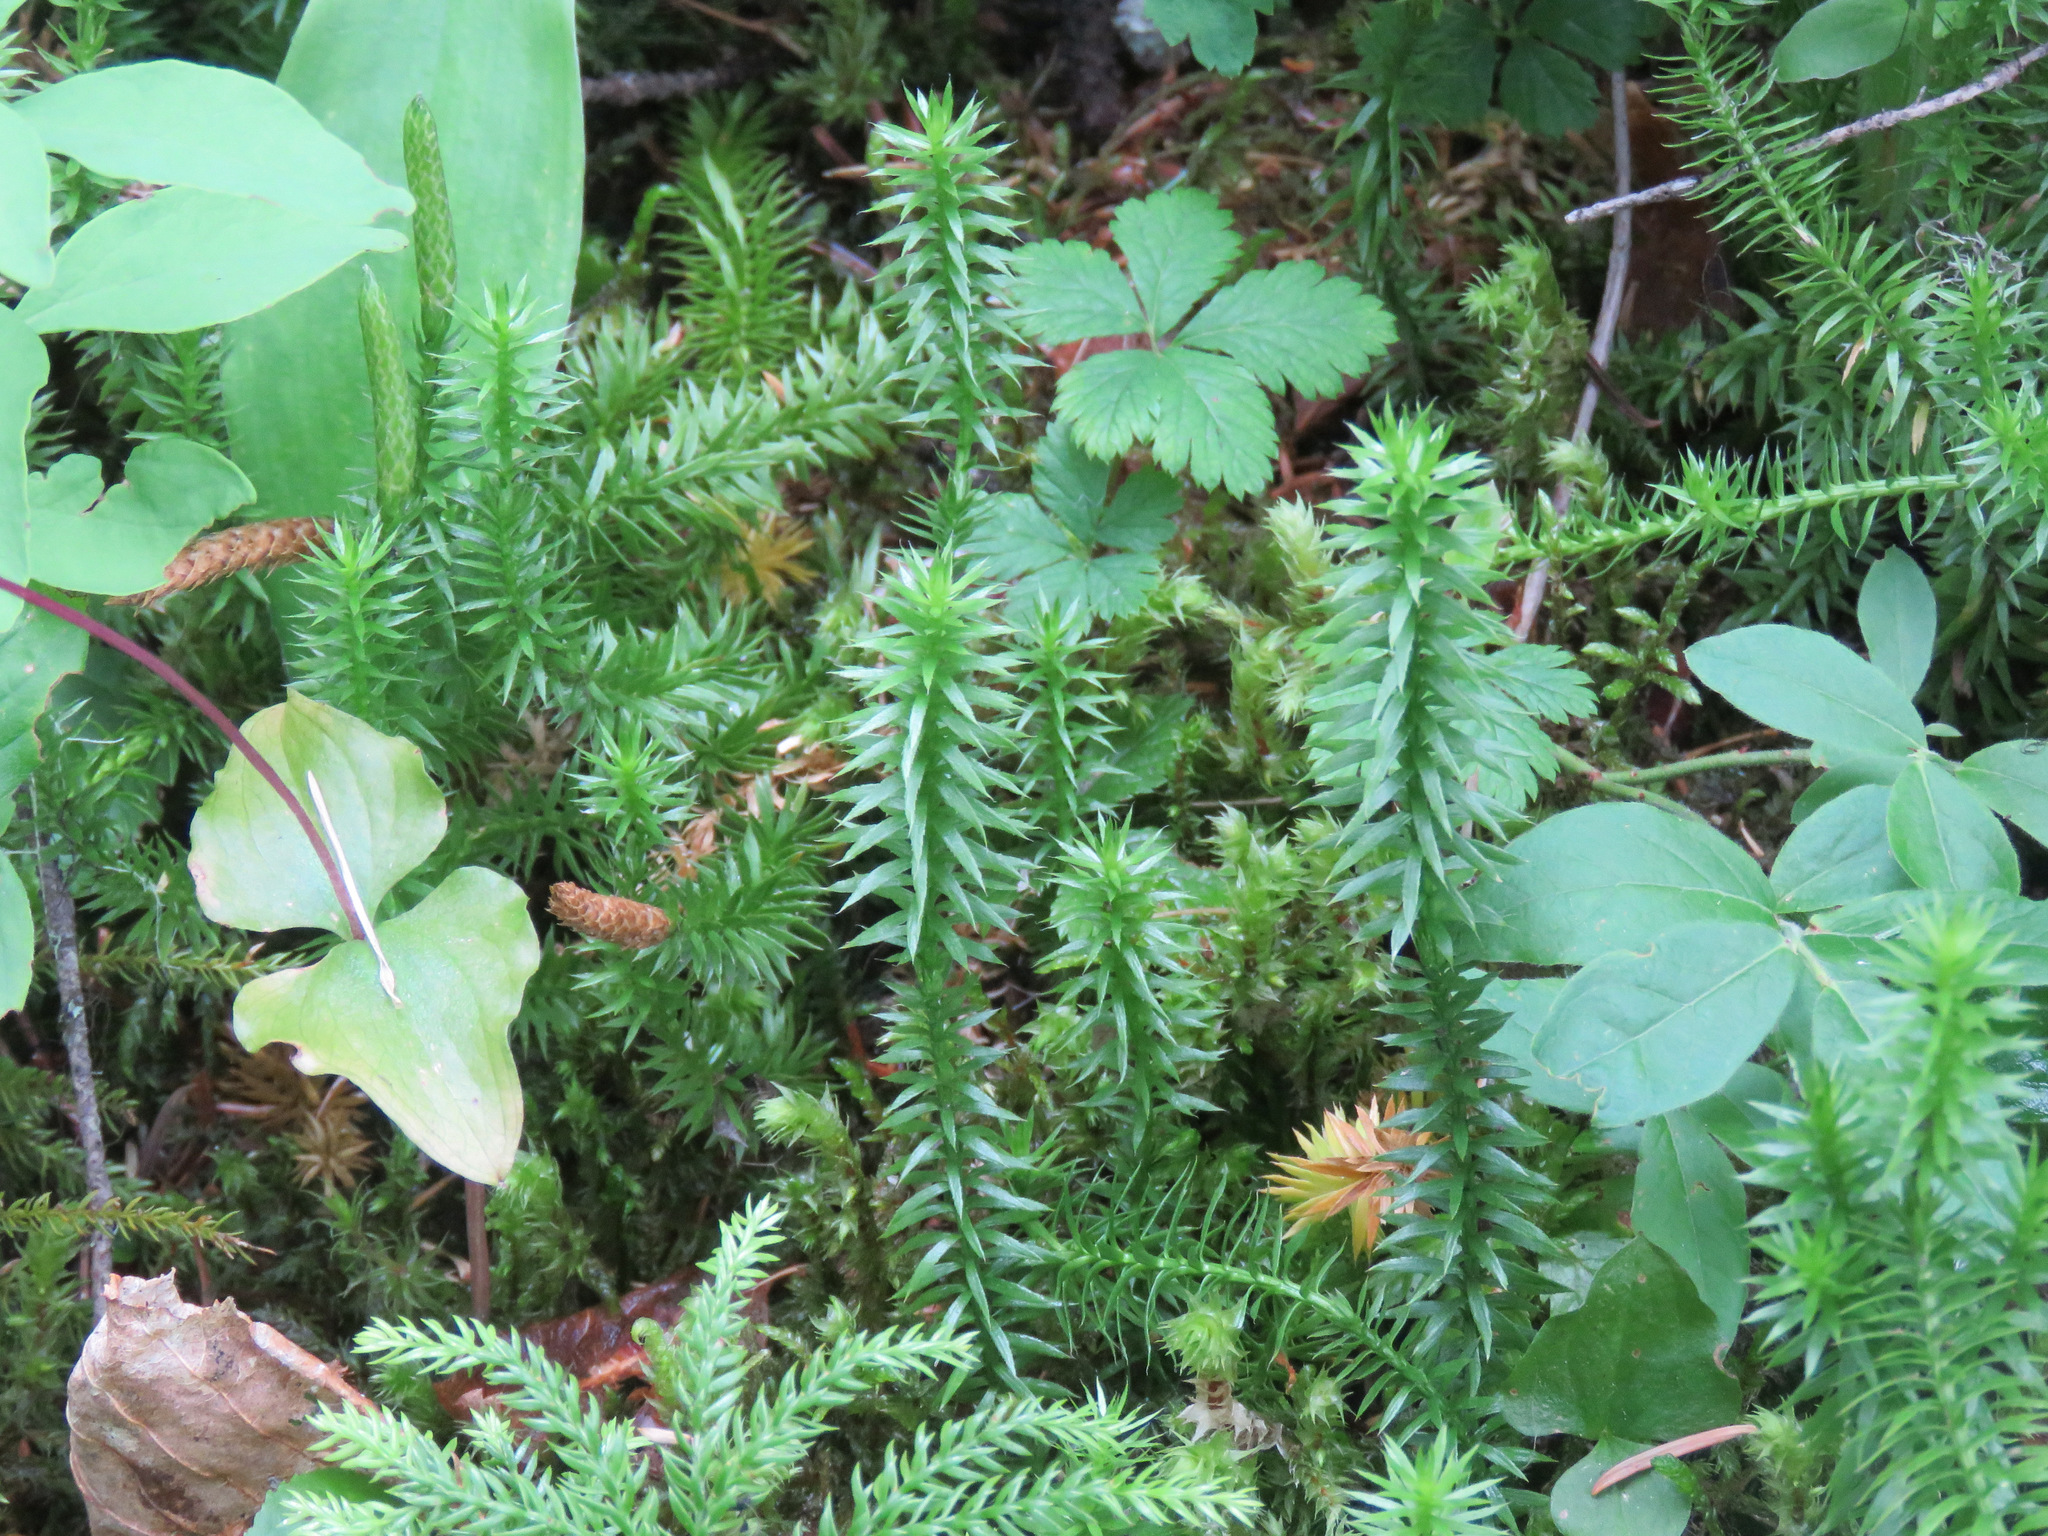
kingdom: Plantae
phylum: Tracheophyta
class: Lycopodiopsida
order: Lycopodiales
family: Lycopodiaceae
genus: Spinulum
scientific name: Spinulum annotinum
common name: Interrupted club-moss
